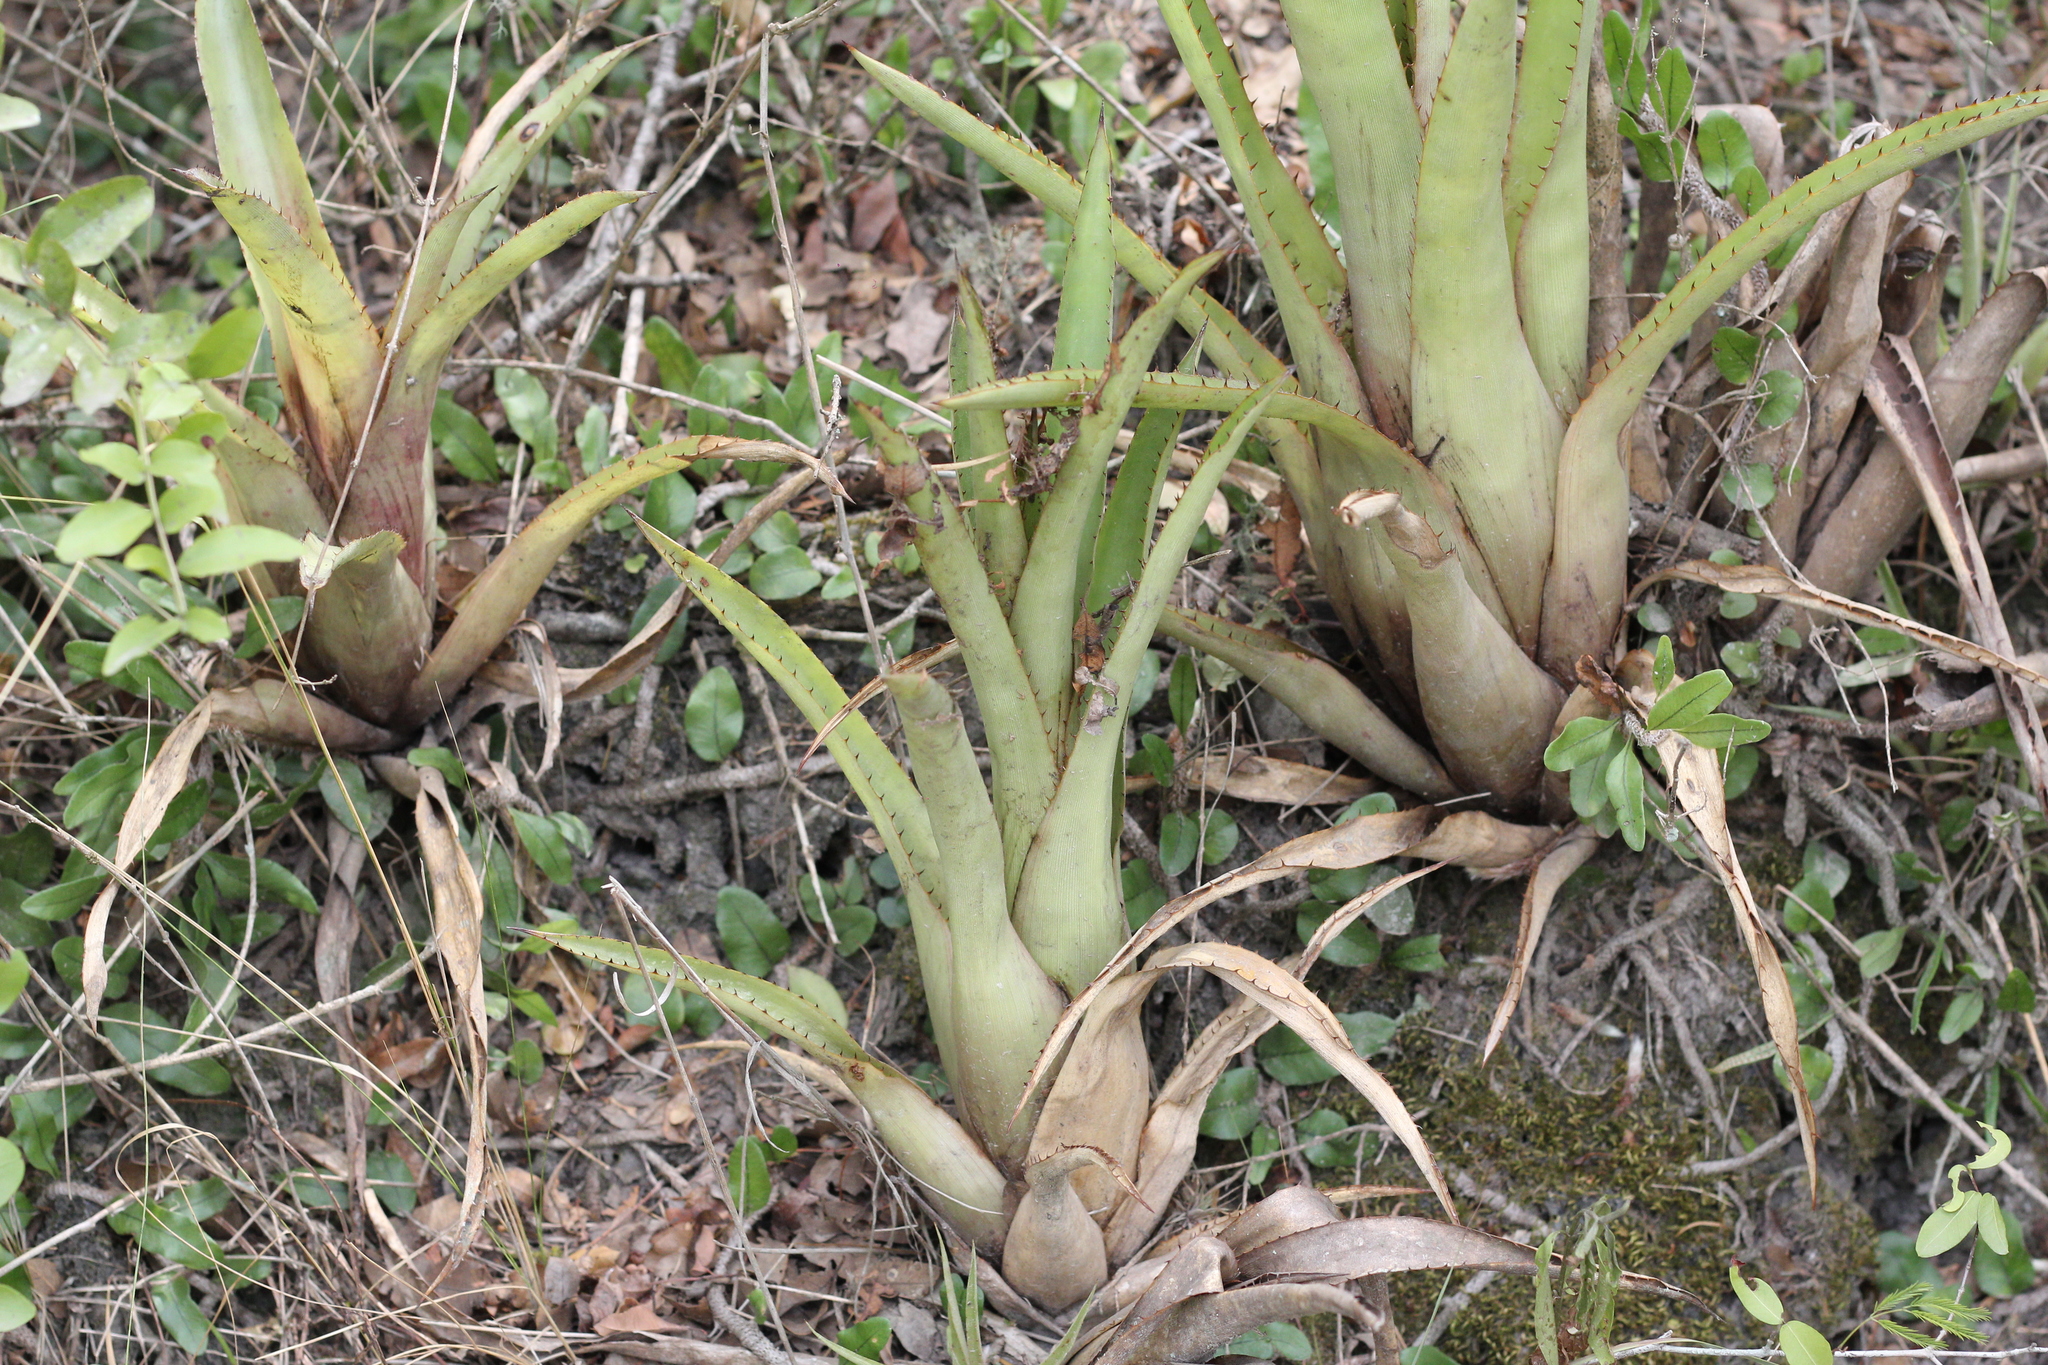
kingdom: Plantae
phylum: Tracheophyta
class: Liliopsida
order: Poales
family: Bromeliaceae
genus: Aechmea
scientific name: Aechmea distichantha
